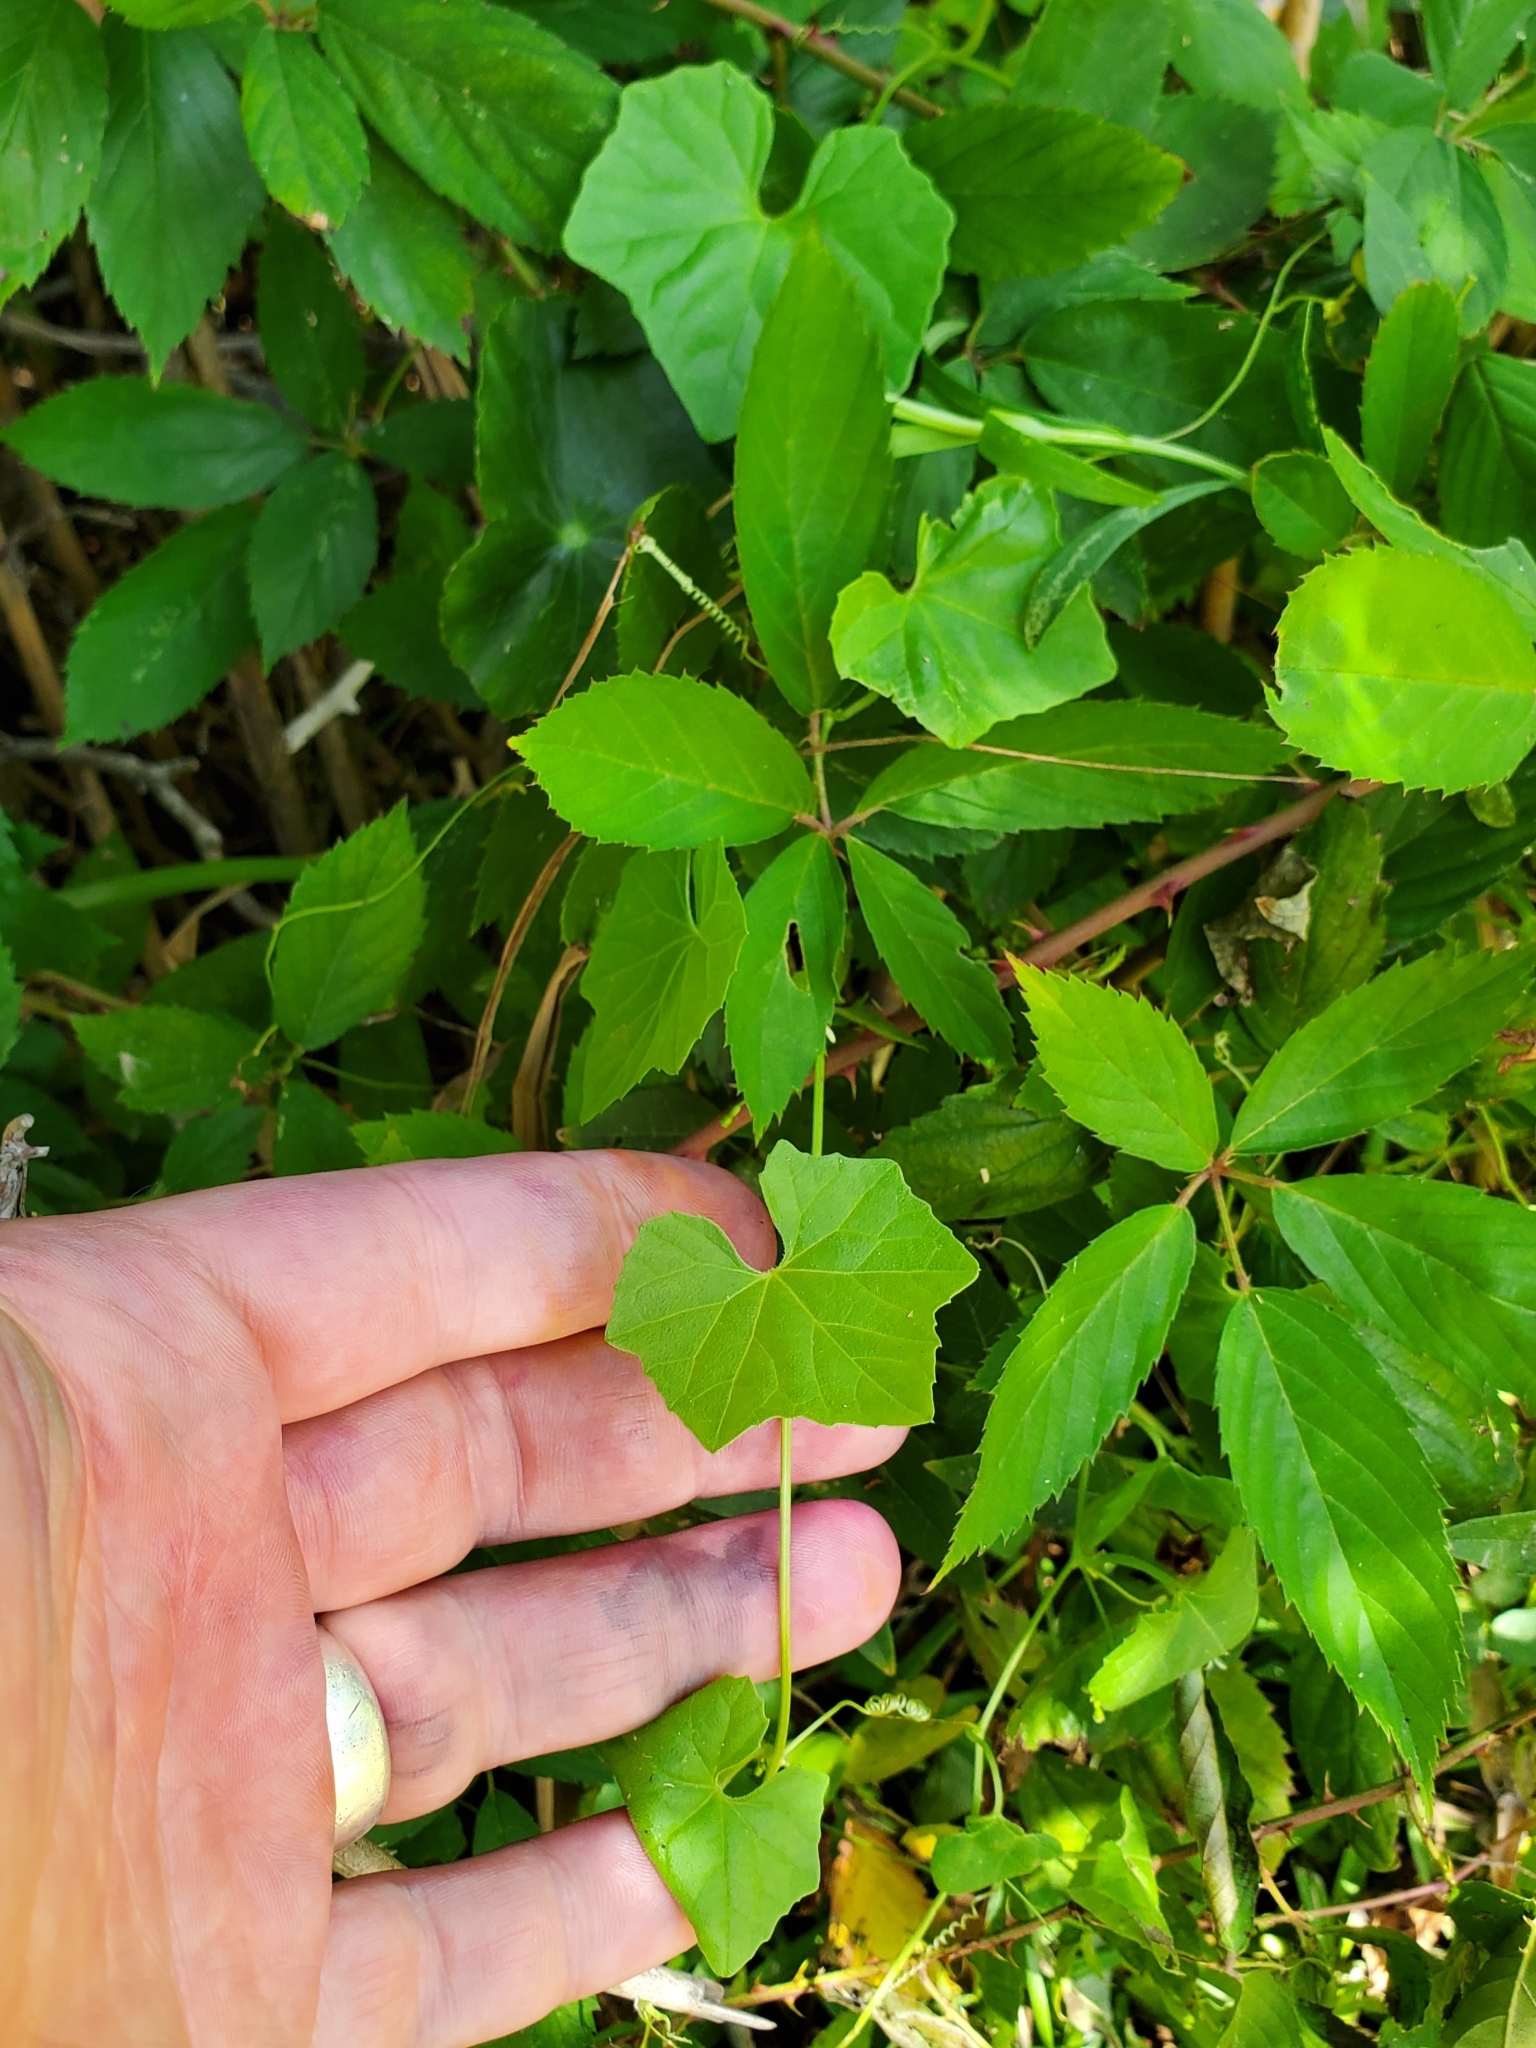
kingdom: Plantae
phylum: Tracheophyta
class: Magnoliopsida
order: Cucurbitales
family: Cucurbitaceae
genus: Melothria
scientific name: Melothria pendula
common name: Creeping-cucumber
